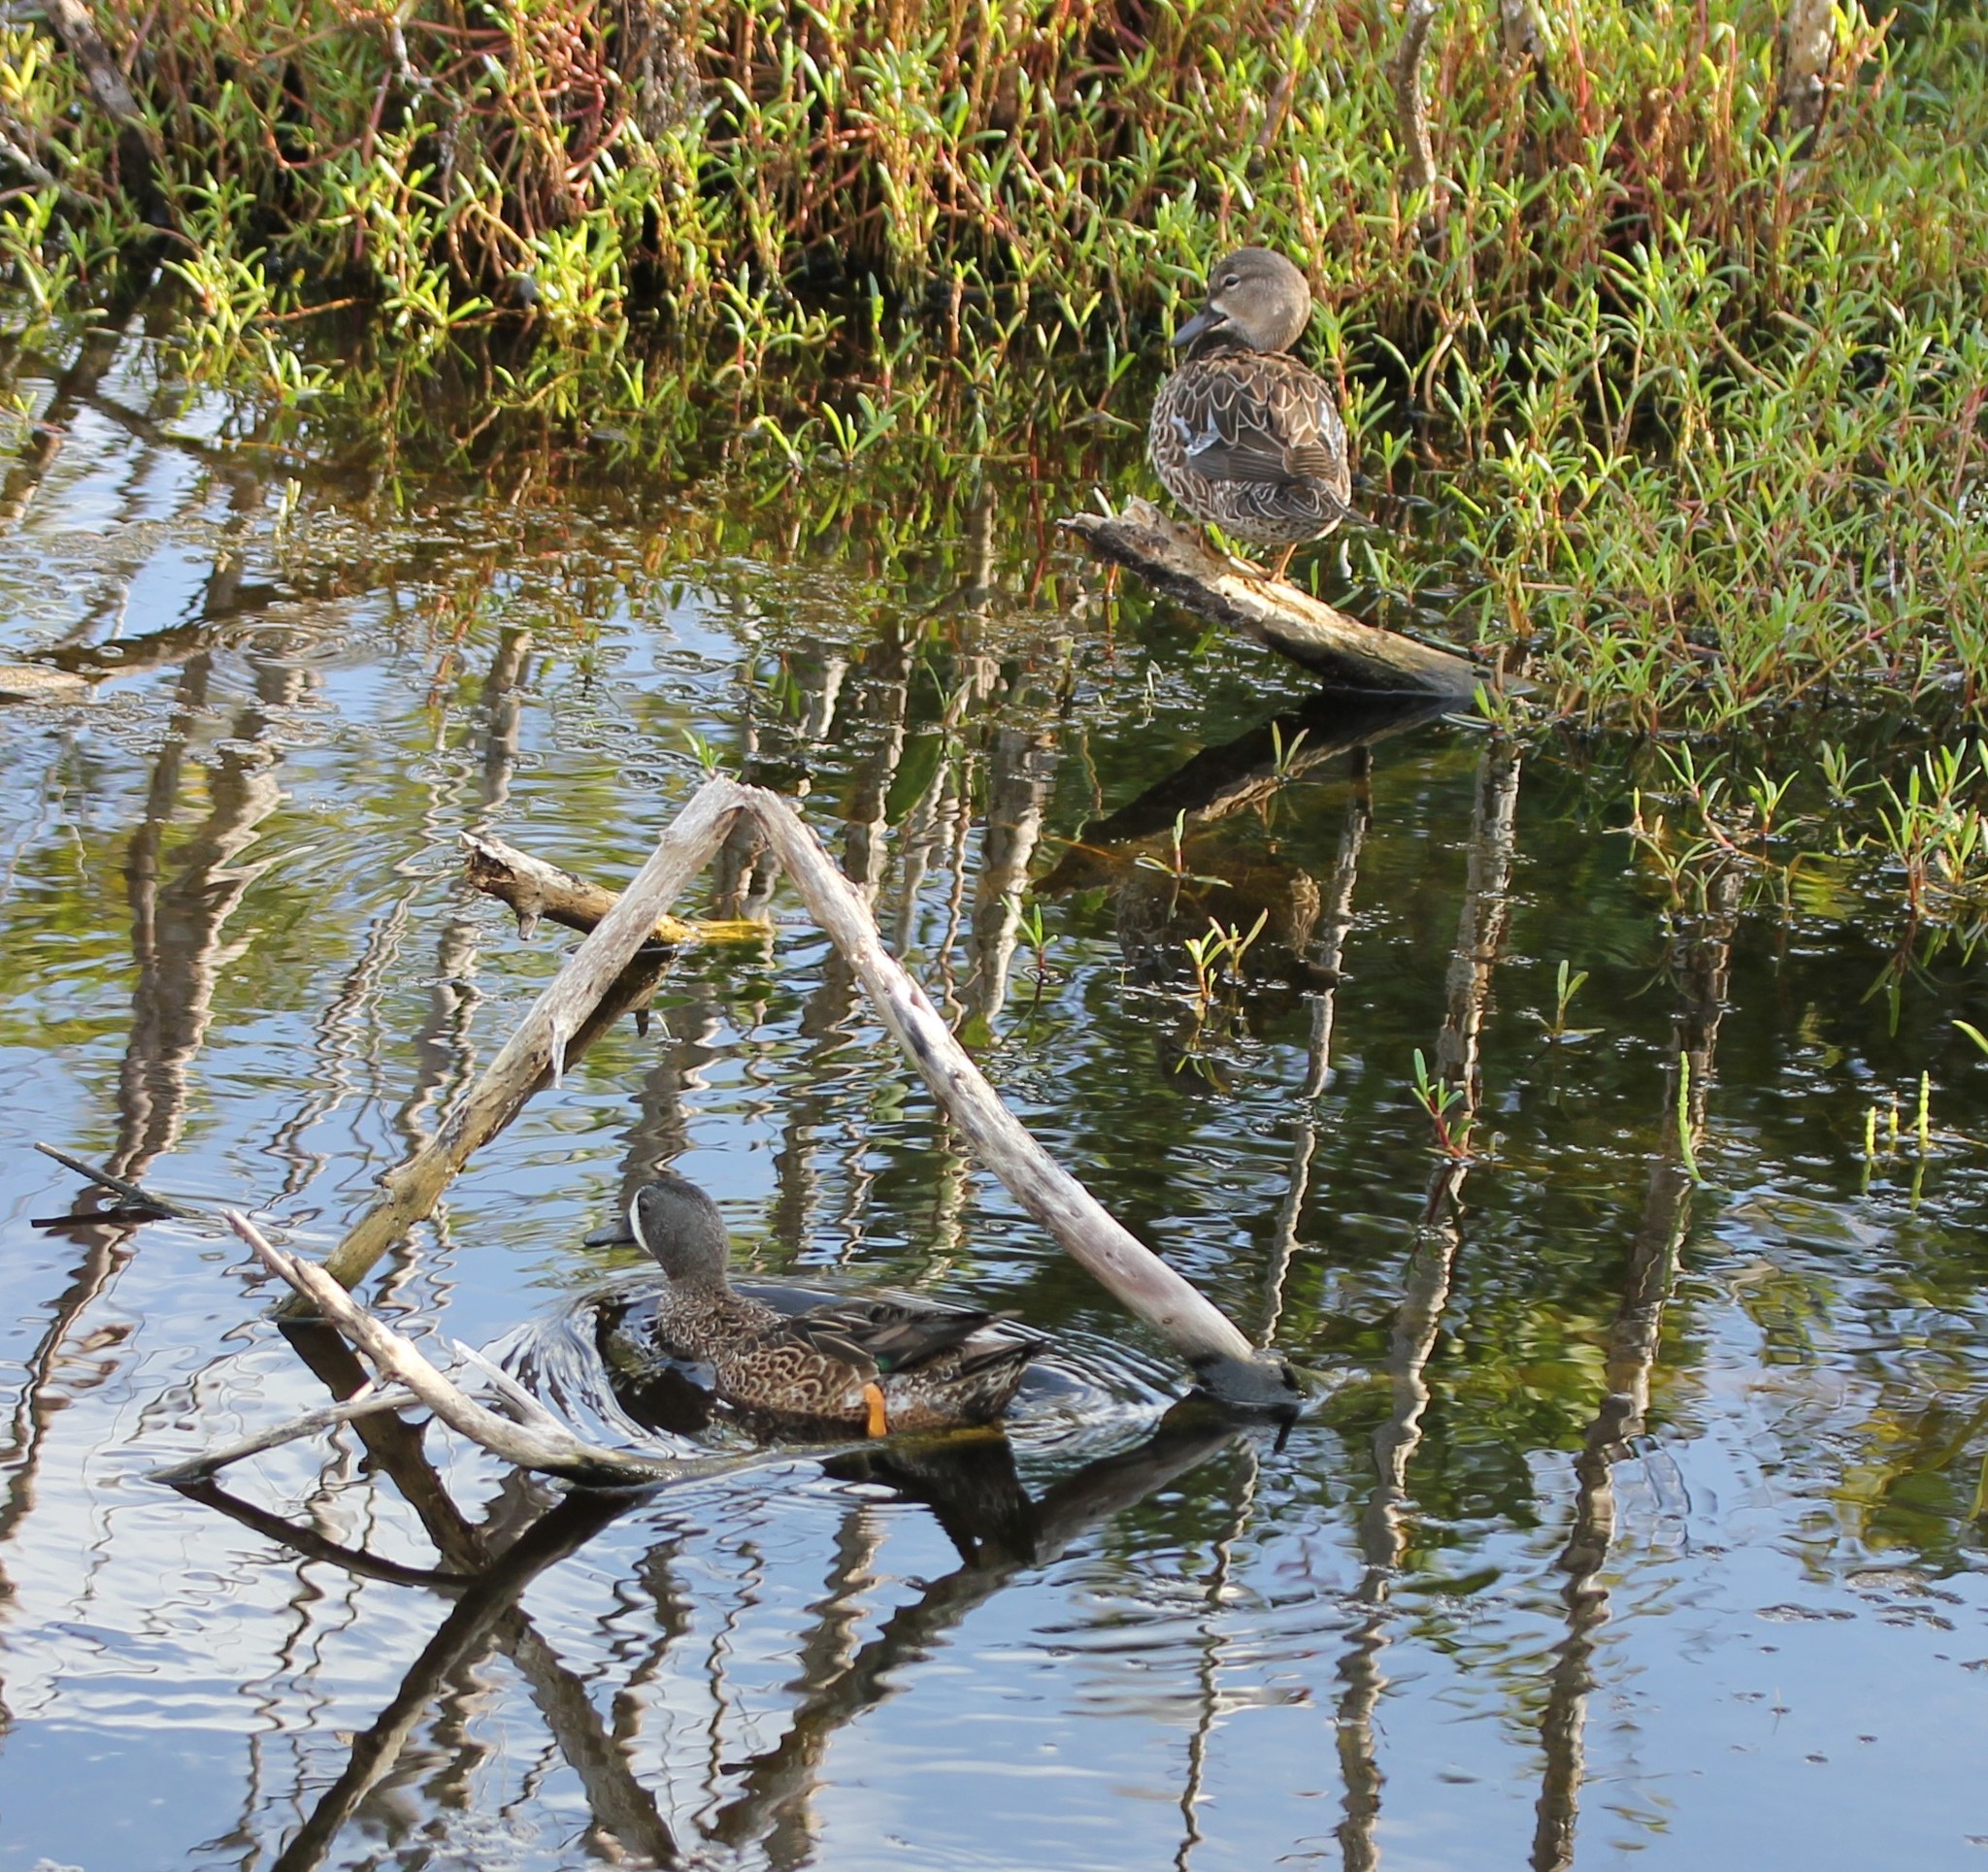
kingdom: Animalia
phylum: Chordata
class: Aves
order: Anseriformes
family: Anatidae
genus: Spatula
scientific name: Spatula discors
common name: Blue-winged teal
